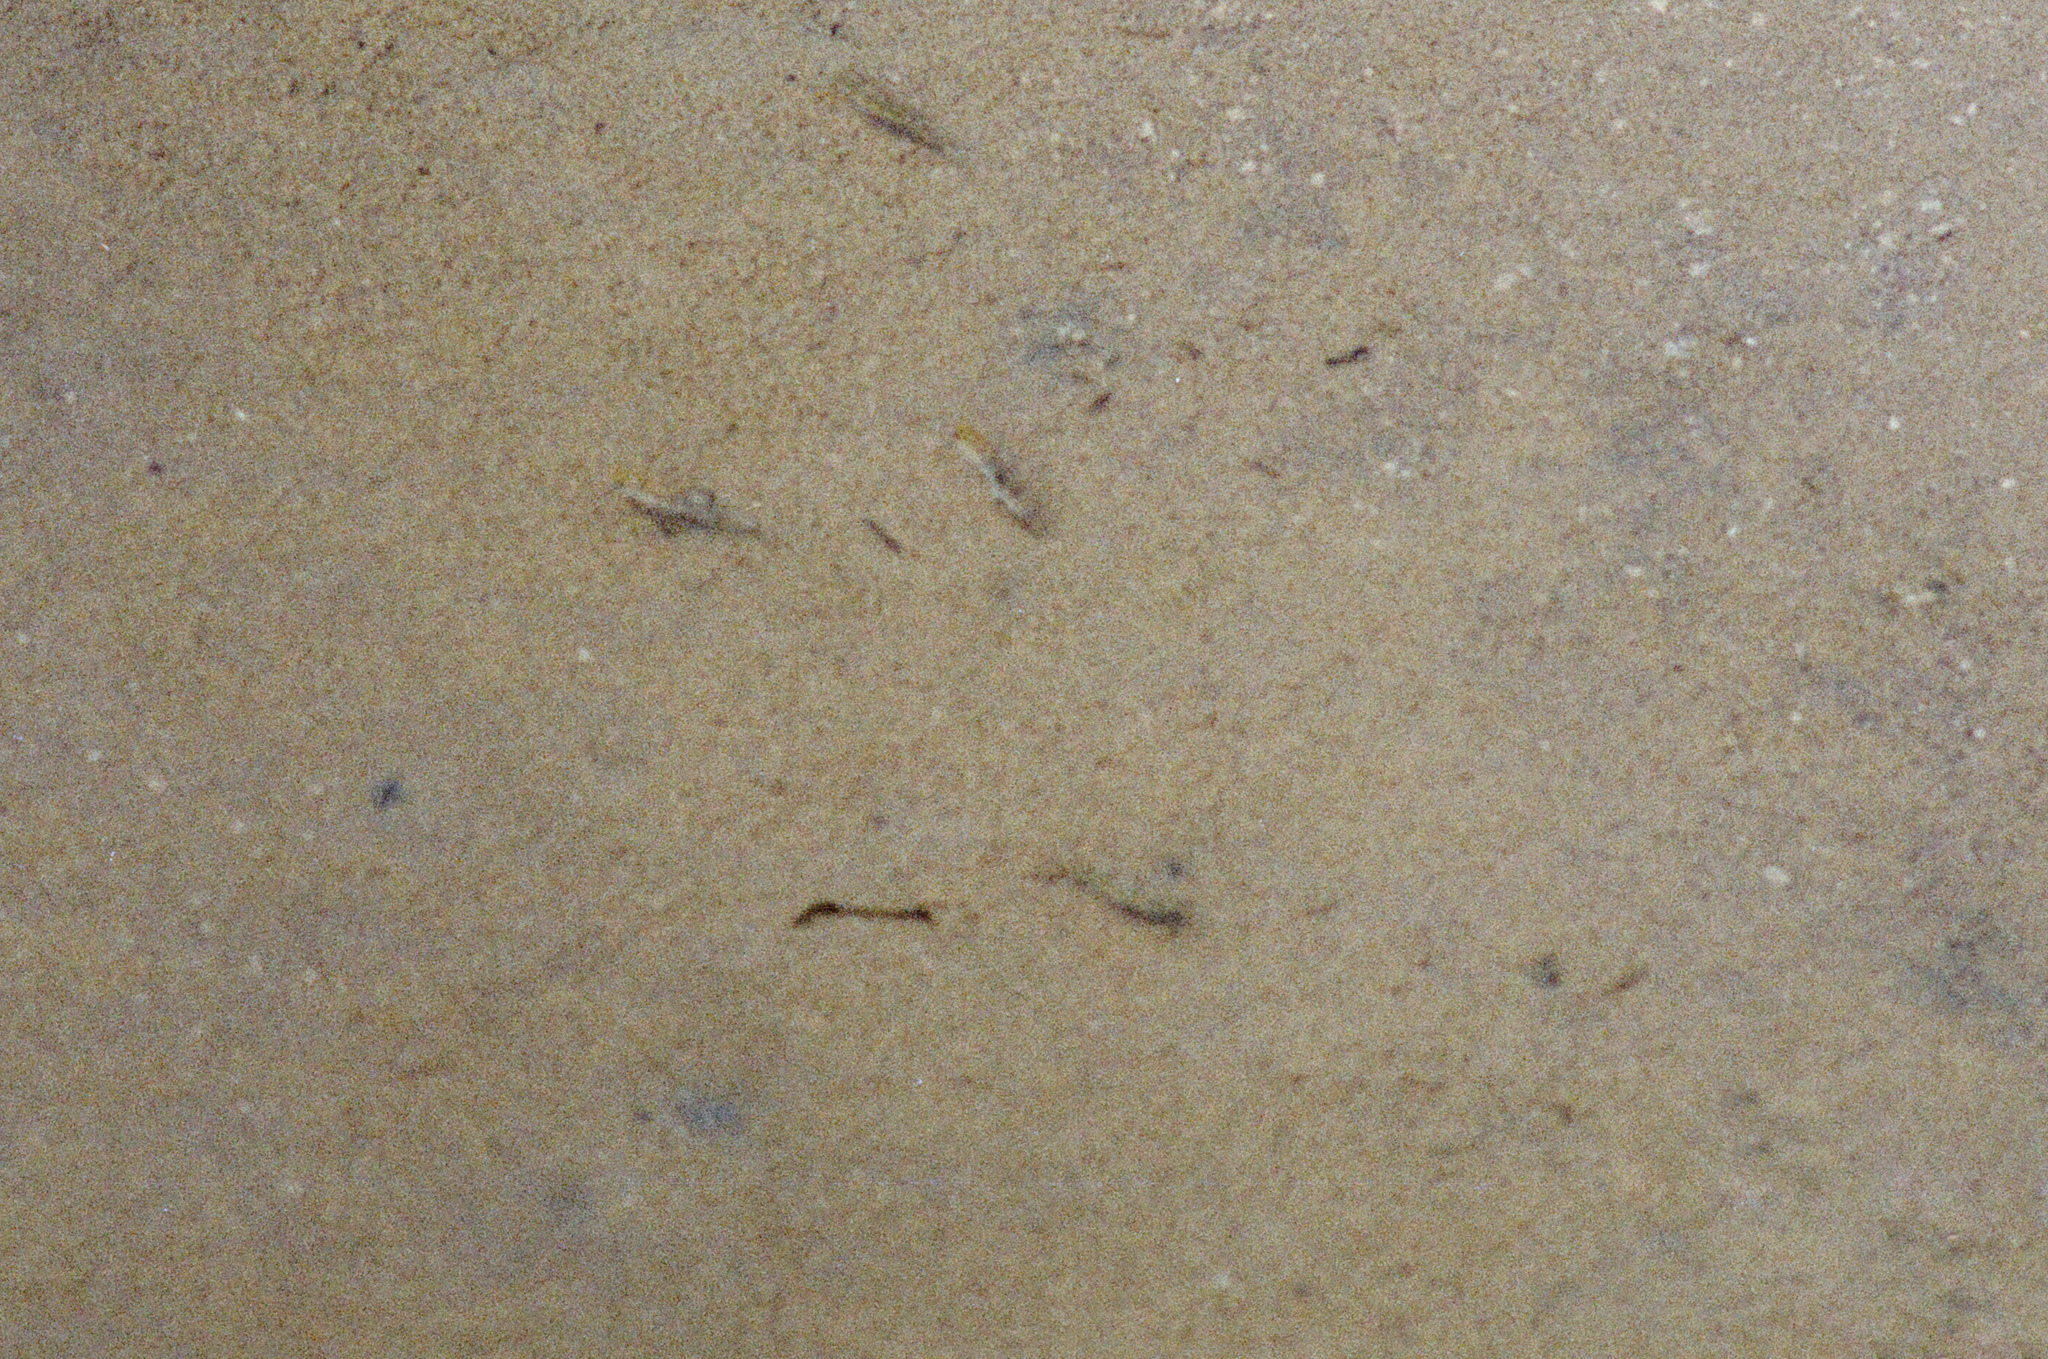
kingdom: Animalia
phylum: Chordata
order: Cyprinodontiformes
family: Cyprinodontidae
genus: Cyprinodon
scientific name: Cyprinodon salinus
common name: Cottonball marsh pupfish
